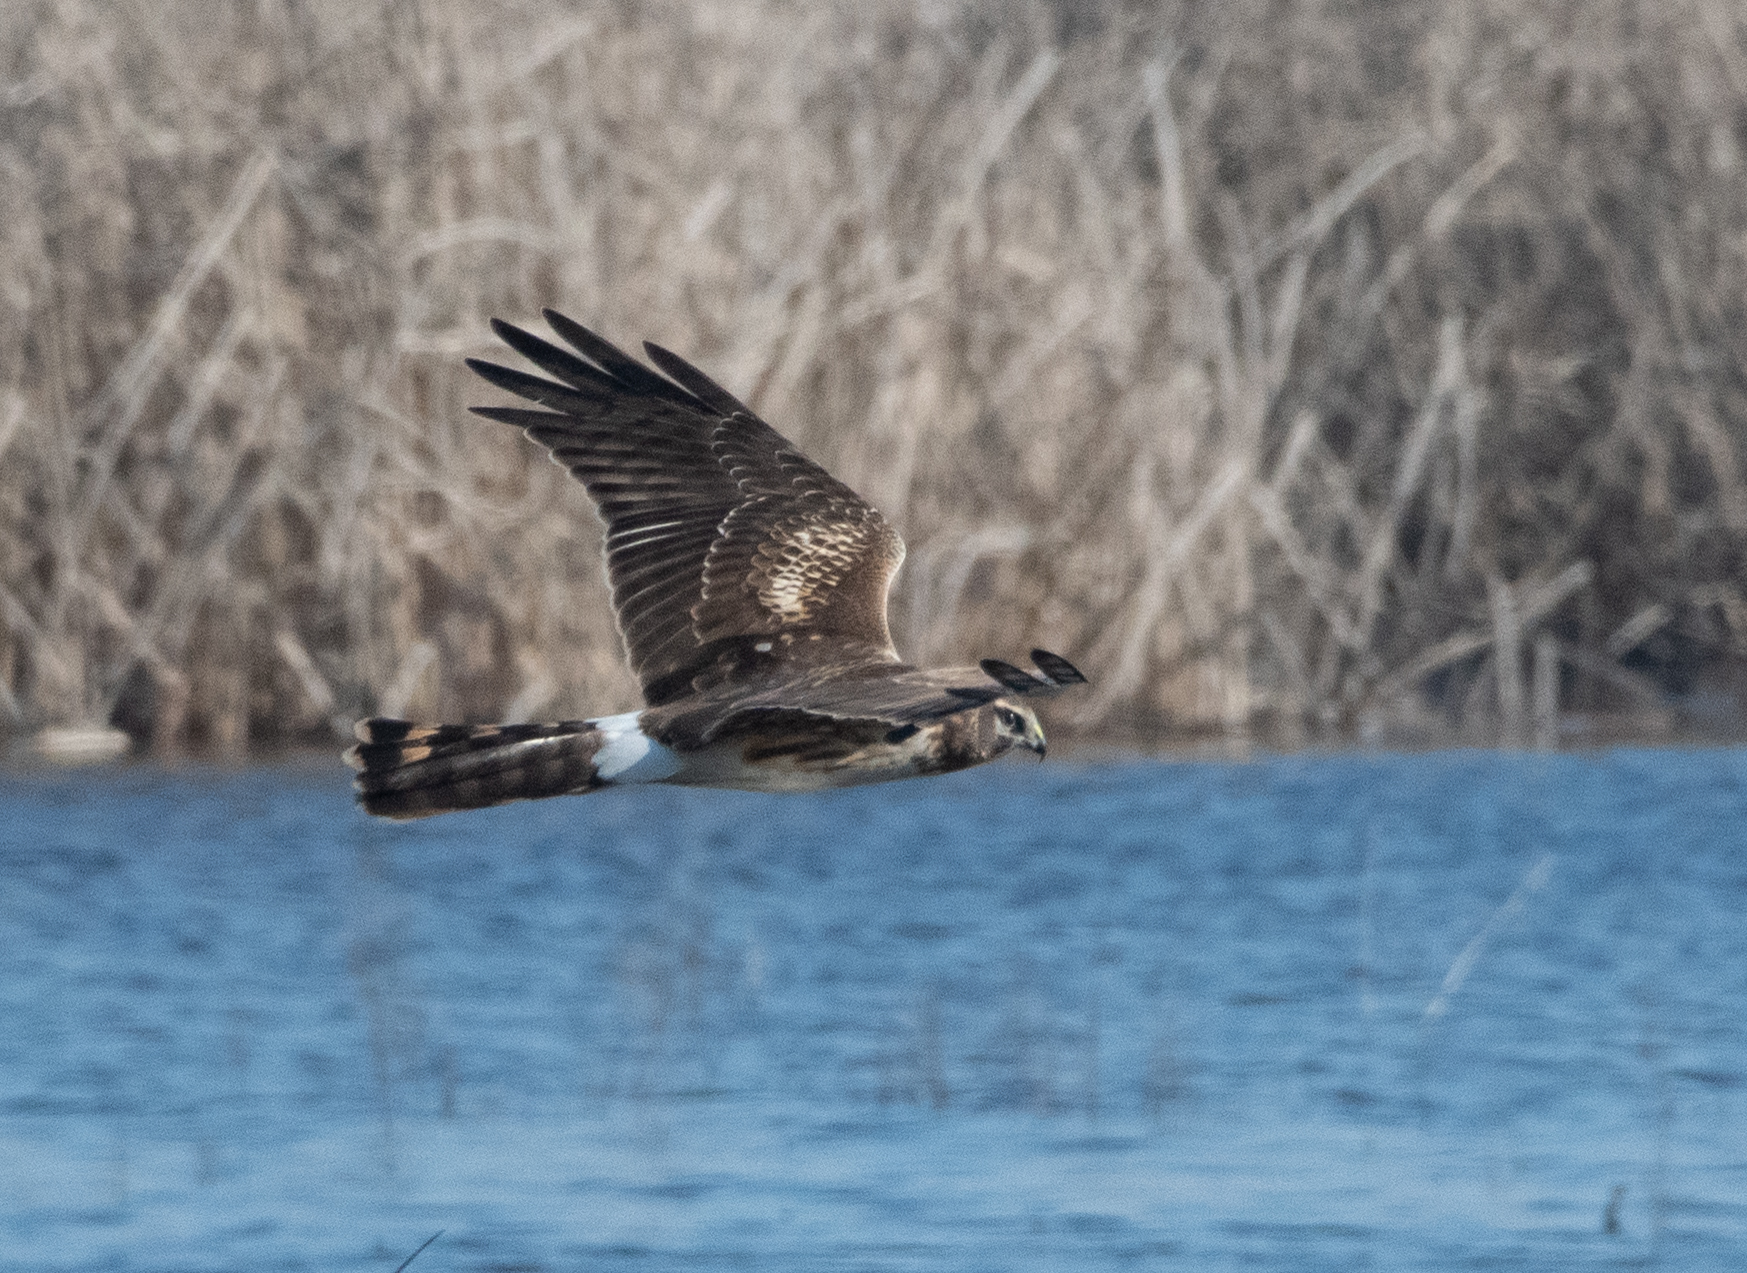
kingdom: Animalia
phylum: Chordata
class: Aves
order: Accipitriformes
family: Accipitridae
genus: Circus
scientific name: Circus cyaneus
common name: Hen harrier
